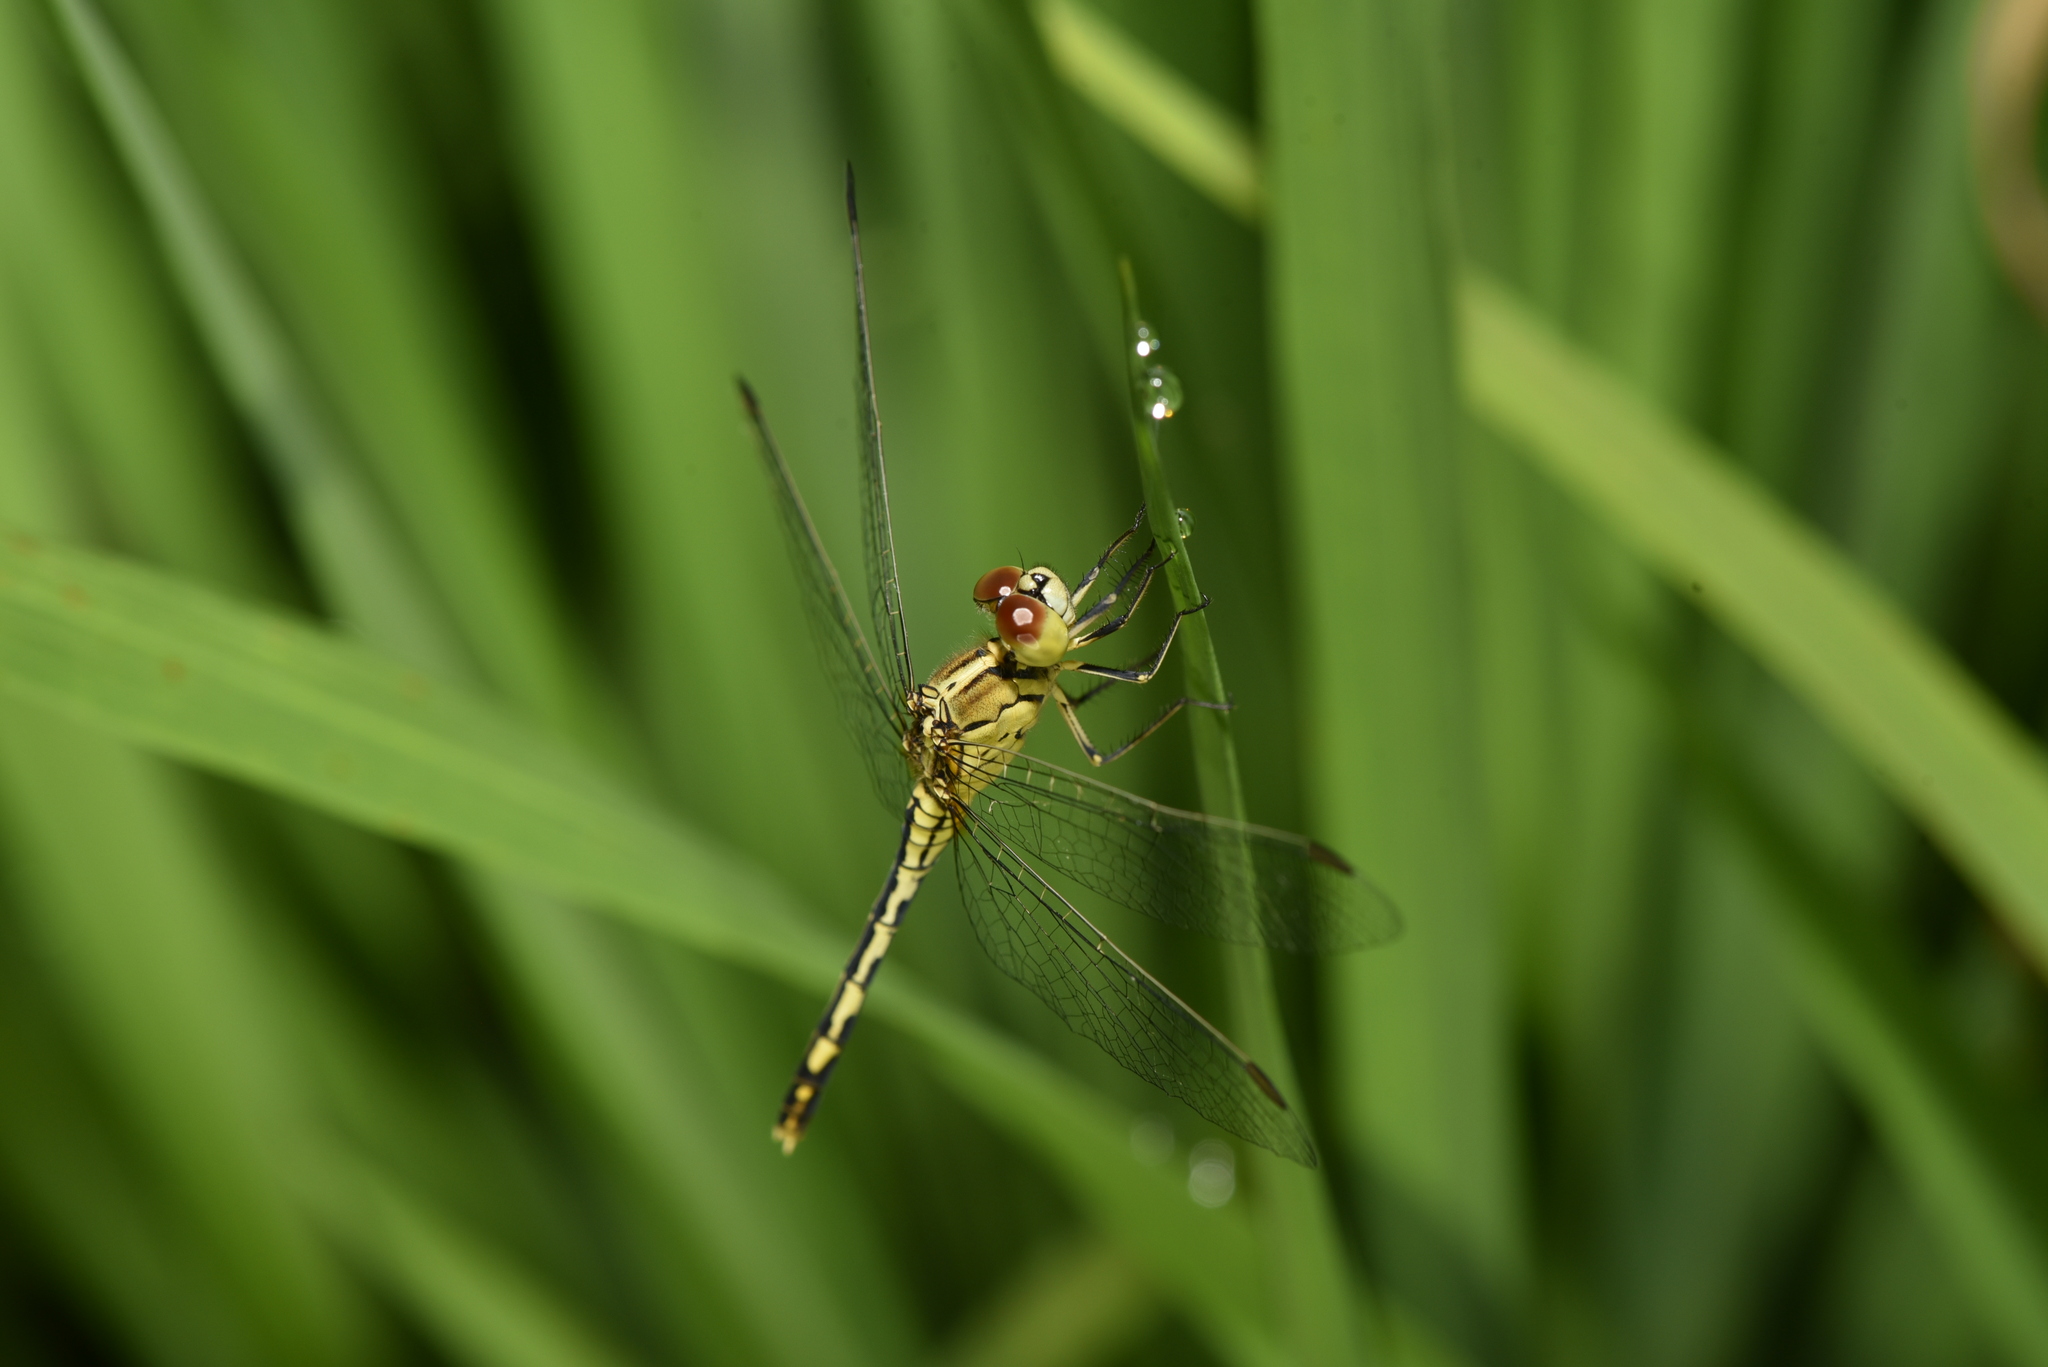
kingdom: Animalia
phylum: Arthropoda
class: Insecta
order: Odonata
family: Libellulidae
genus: Diplacodes
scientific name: Diplacodes trivialis
